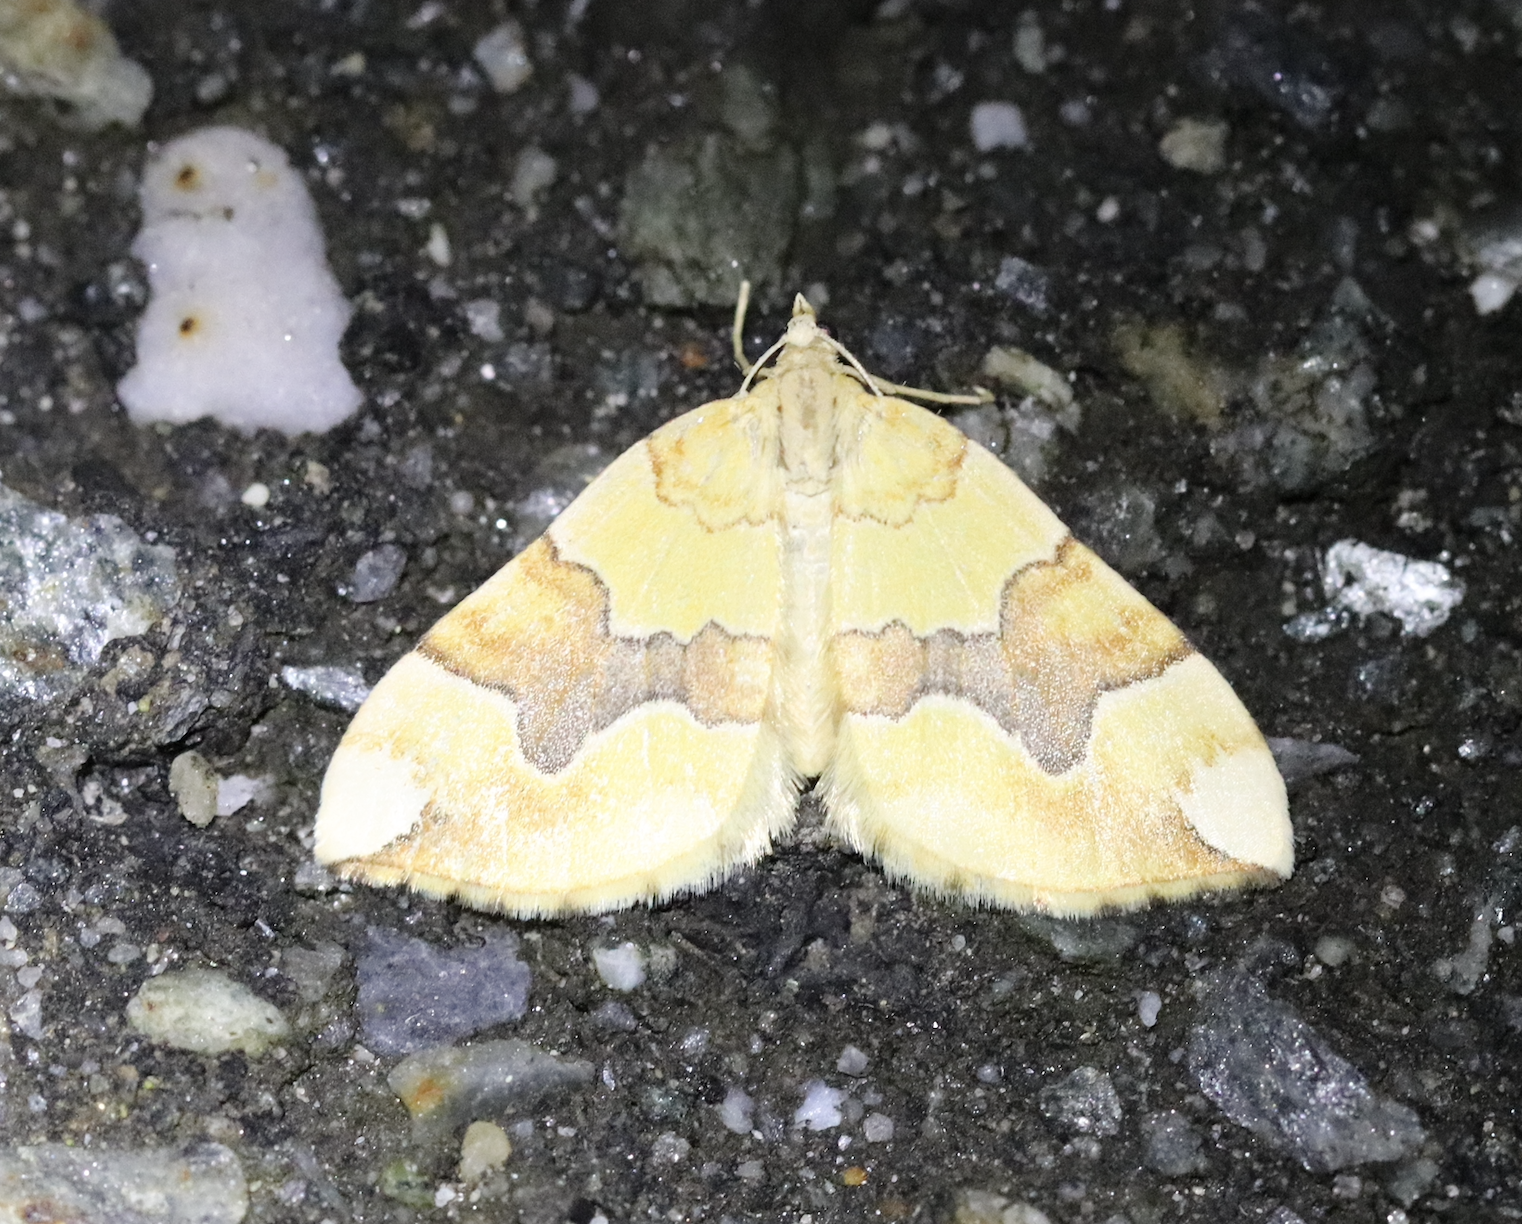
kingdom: Animalia
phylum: Arthropoda
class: Insecta
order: Lepidoptera
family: Geometridae
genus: Cidaria
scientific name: Cidaria fulvata
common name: Barred yellow
